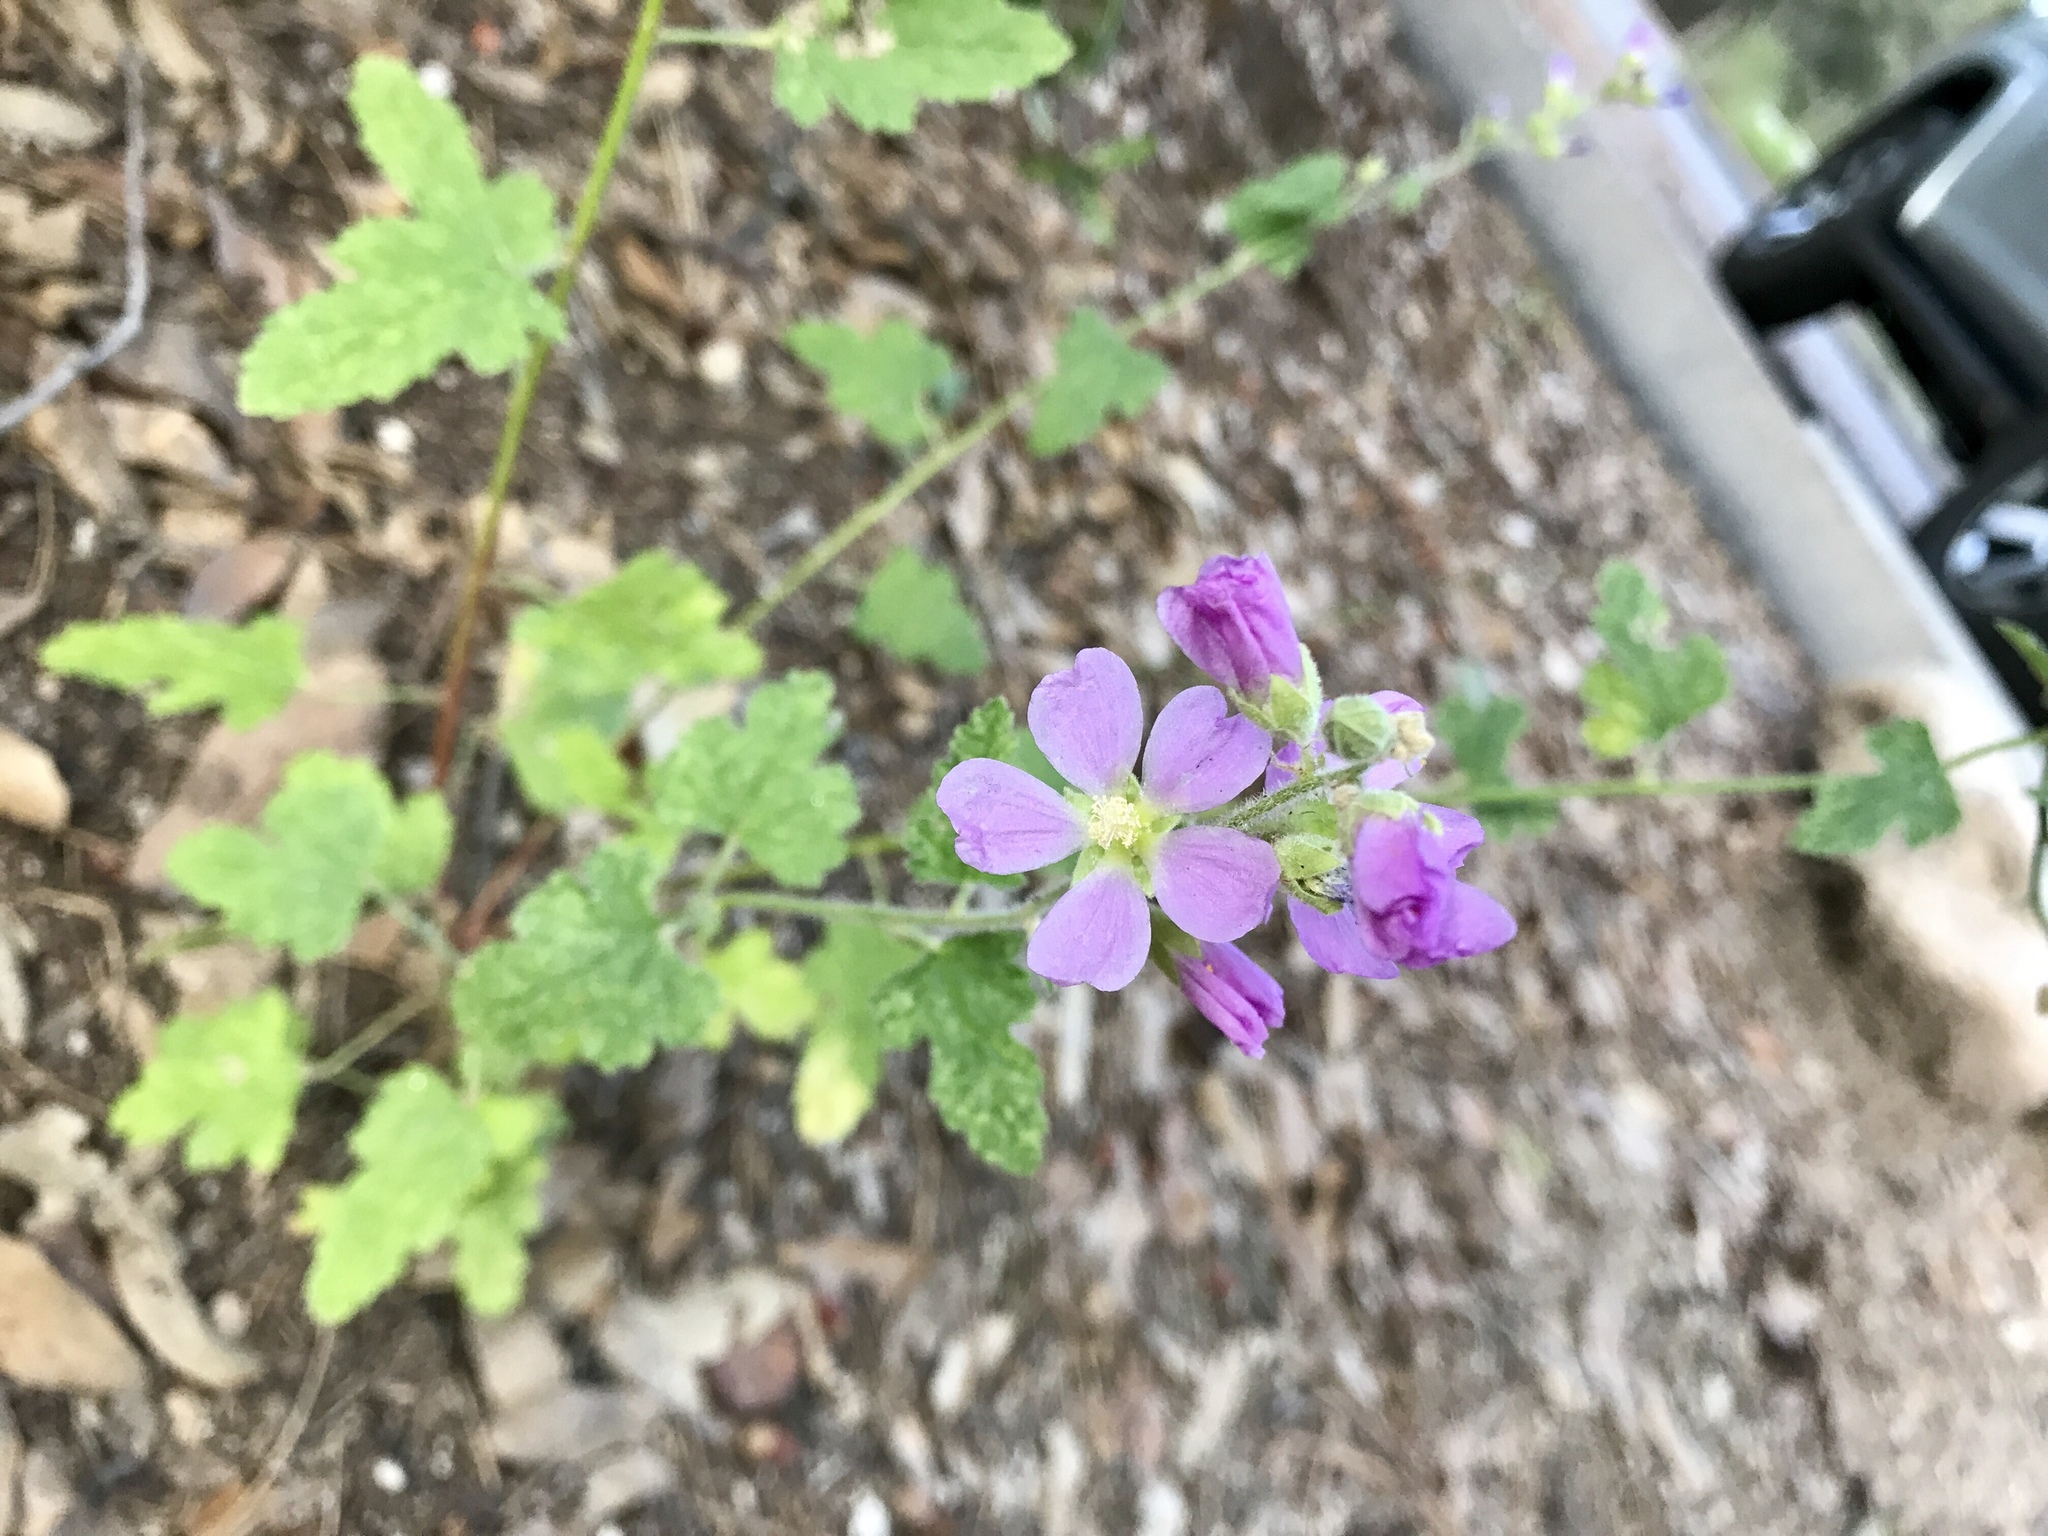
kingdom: Plantae
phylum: Tracheophyta
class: Magnoliopsida
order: Malvales
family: Malvaceae
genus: Sphaeralcea
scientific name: Sphaeralcea fendleri
